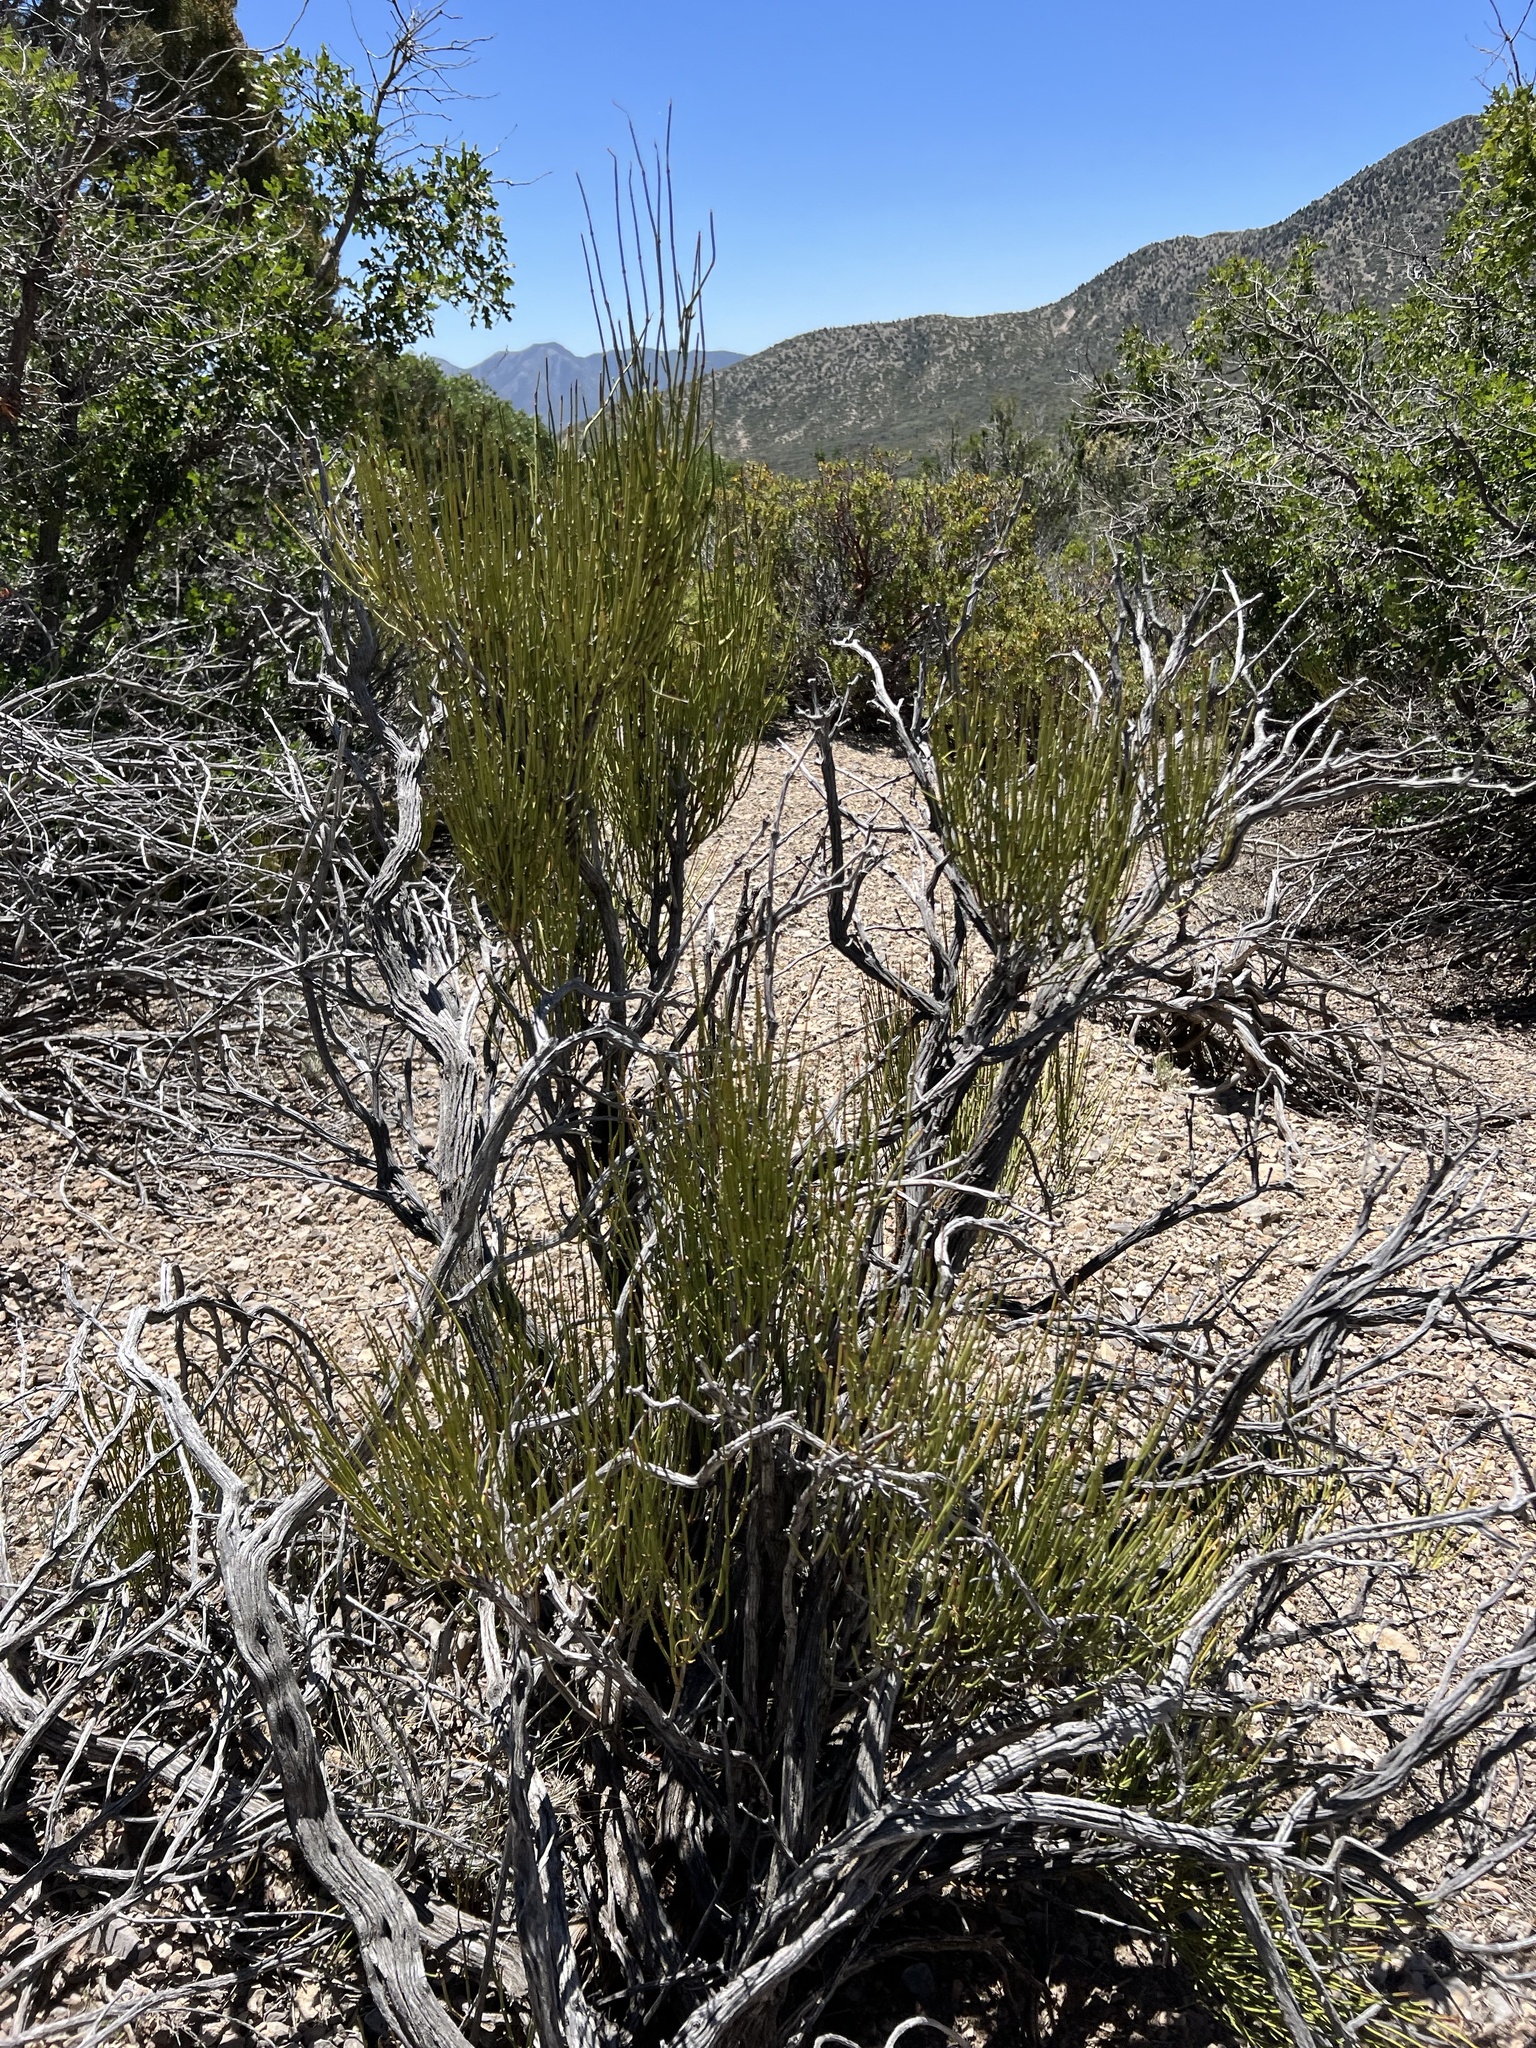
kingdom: Plantae
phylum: Tracheophyta
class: Gnetopsida
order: Ephedrales
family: Ephedraceae
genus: Ephedra
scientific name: Ephedra viridis
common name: Green ephedra
